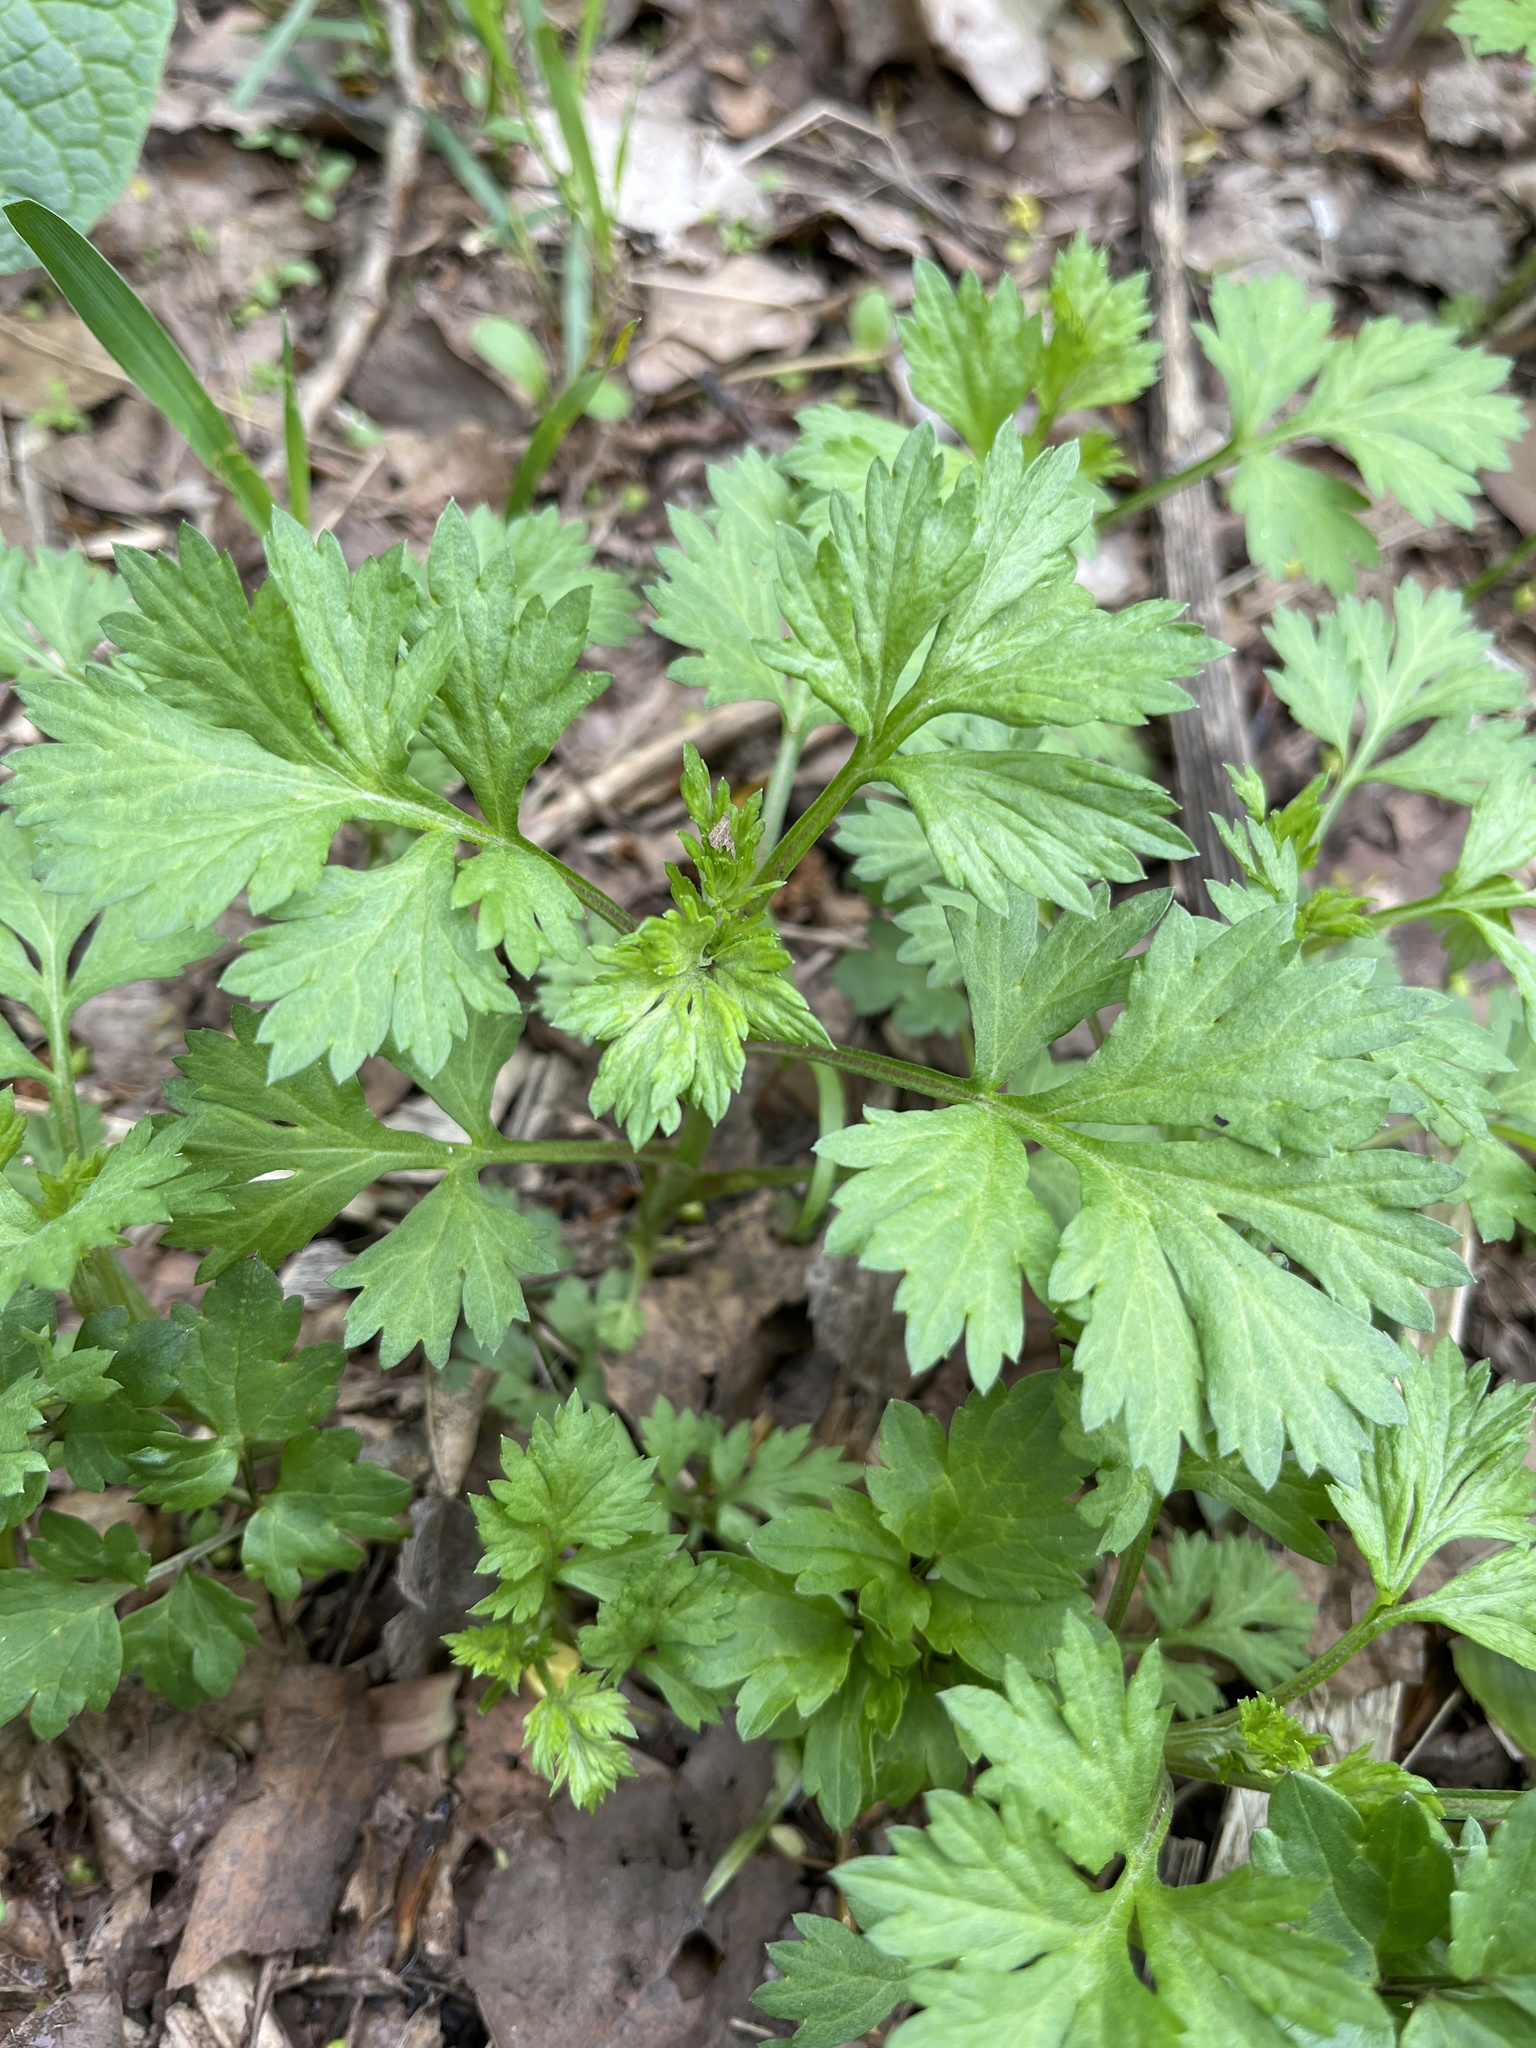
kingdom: Plantae
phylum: Tracheophyta
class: Magnoliopsida
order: Asterales
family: Asteraceae
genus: Artemisia
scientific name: Artemisia vulgaris
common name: Mugwort
